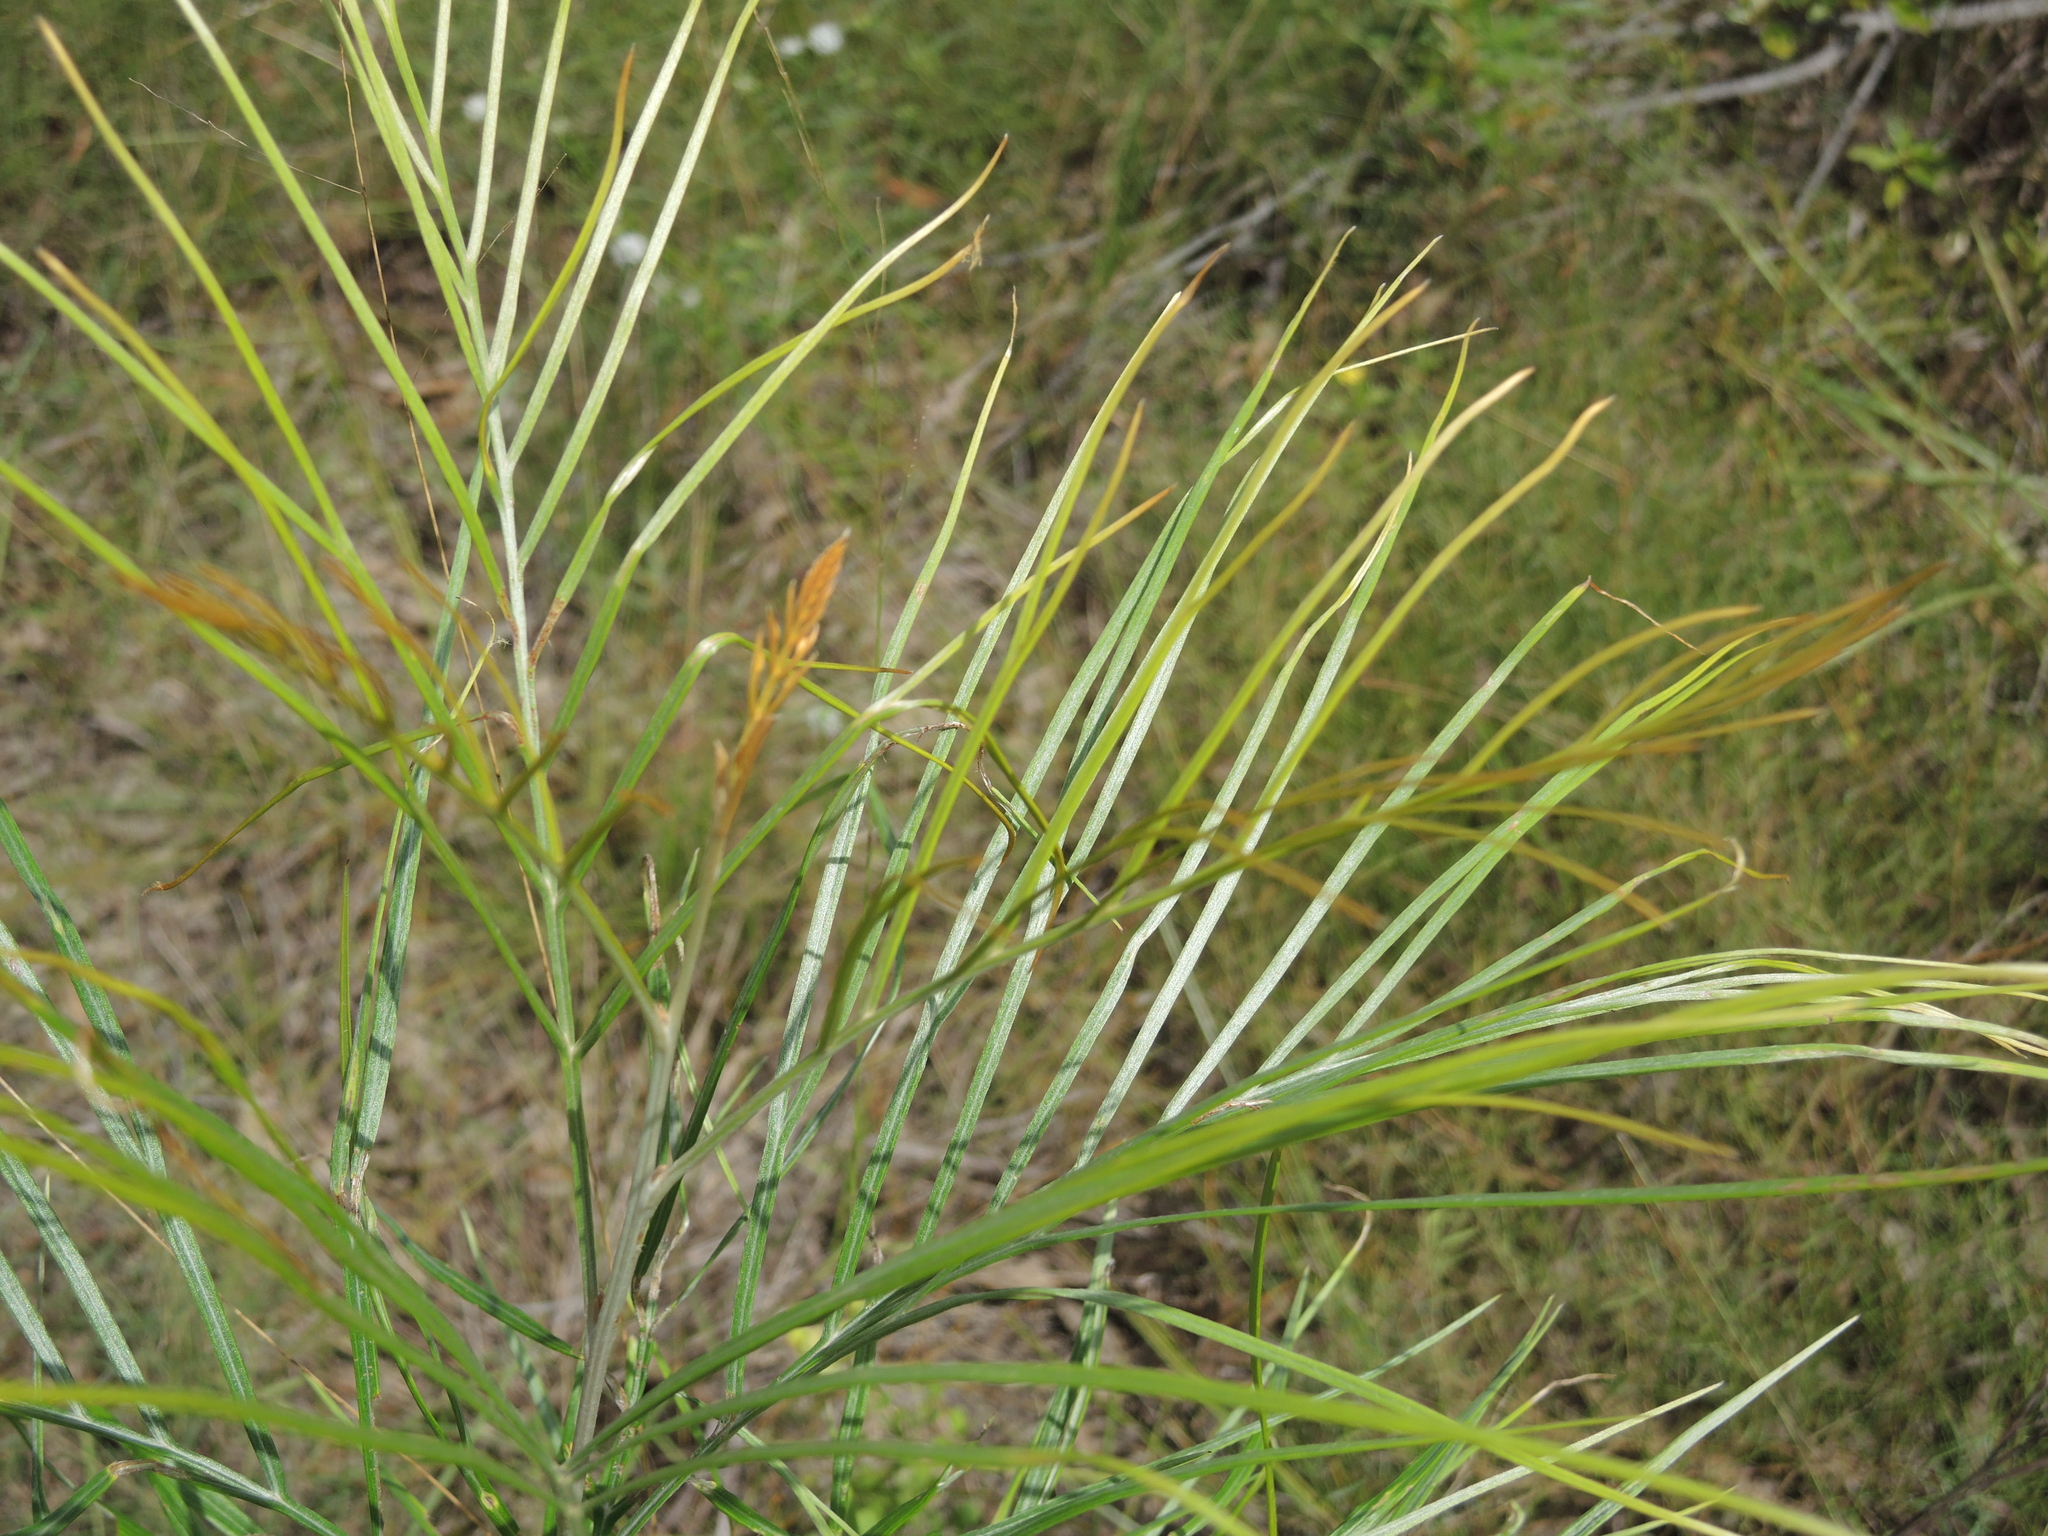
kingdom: Plantae
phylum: Tracheophyta
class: Magnoliopsida
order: Proteales
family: Proteaceae
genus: Grevillea
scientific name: Grevillea pteridifolia
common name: Golden grevillea
